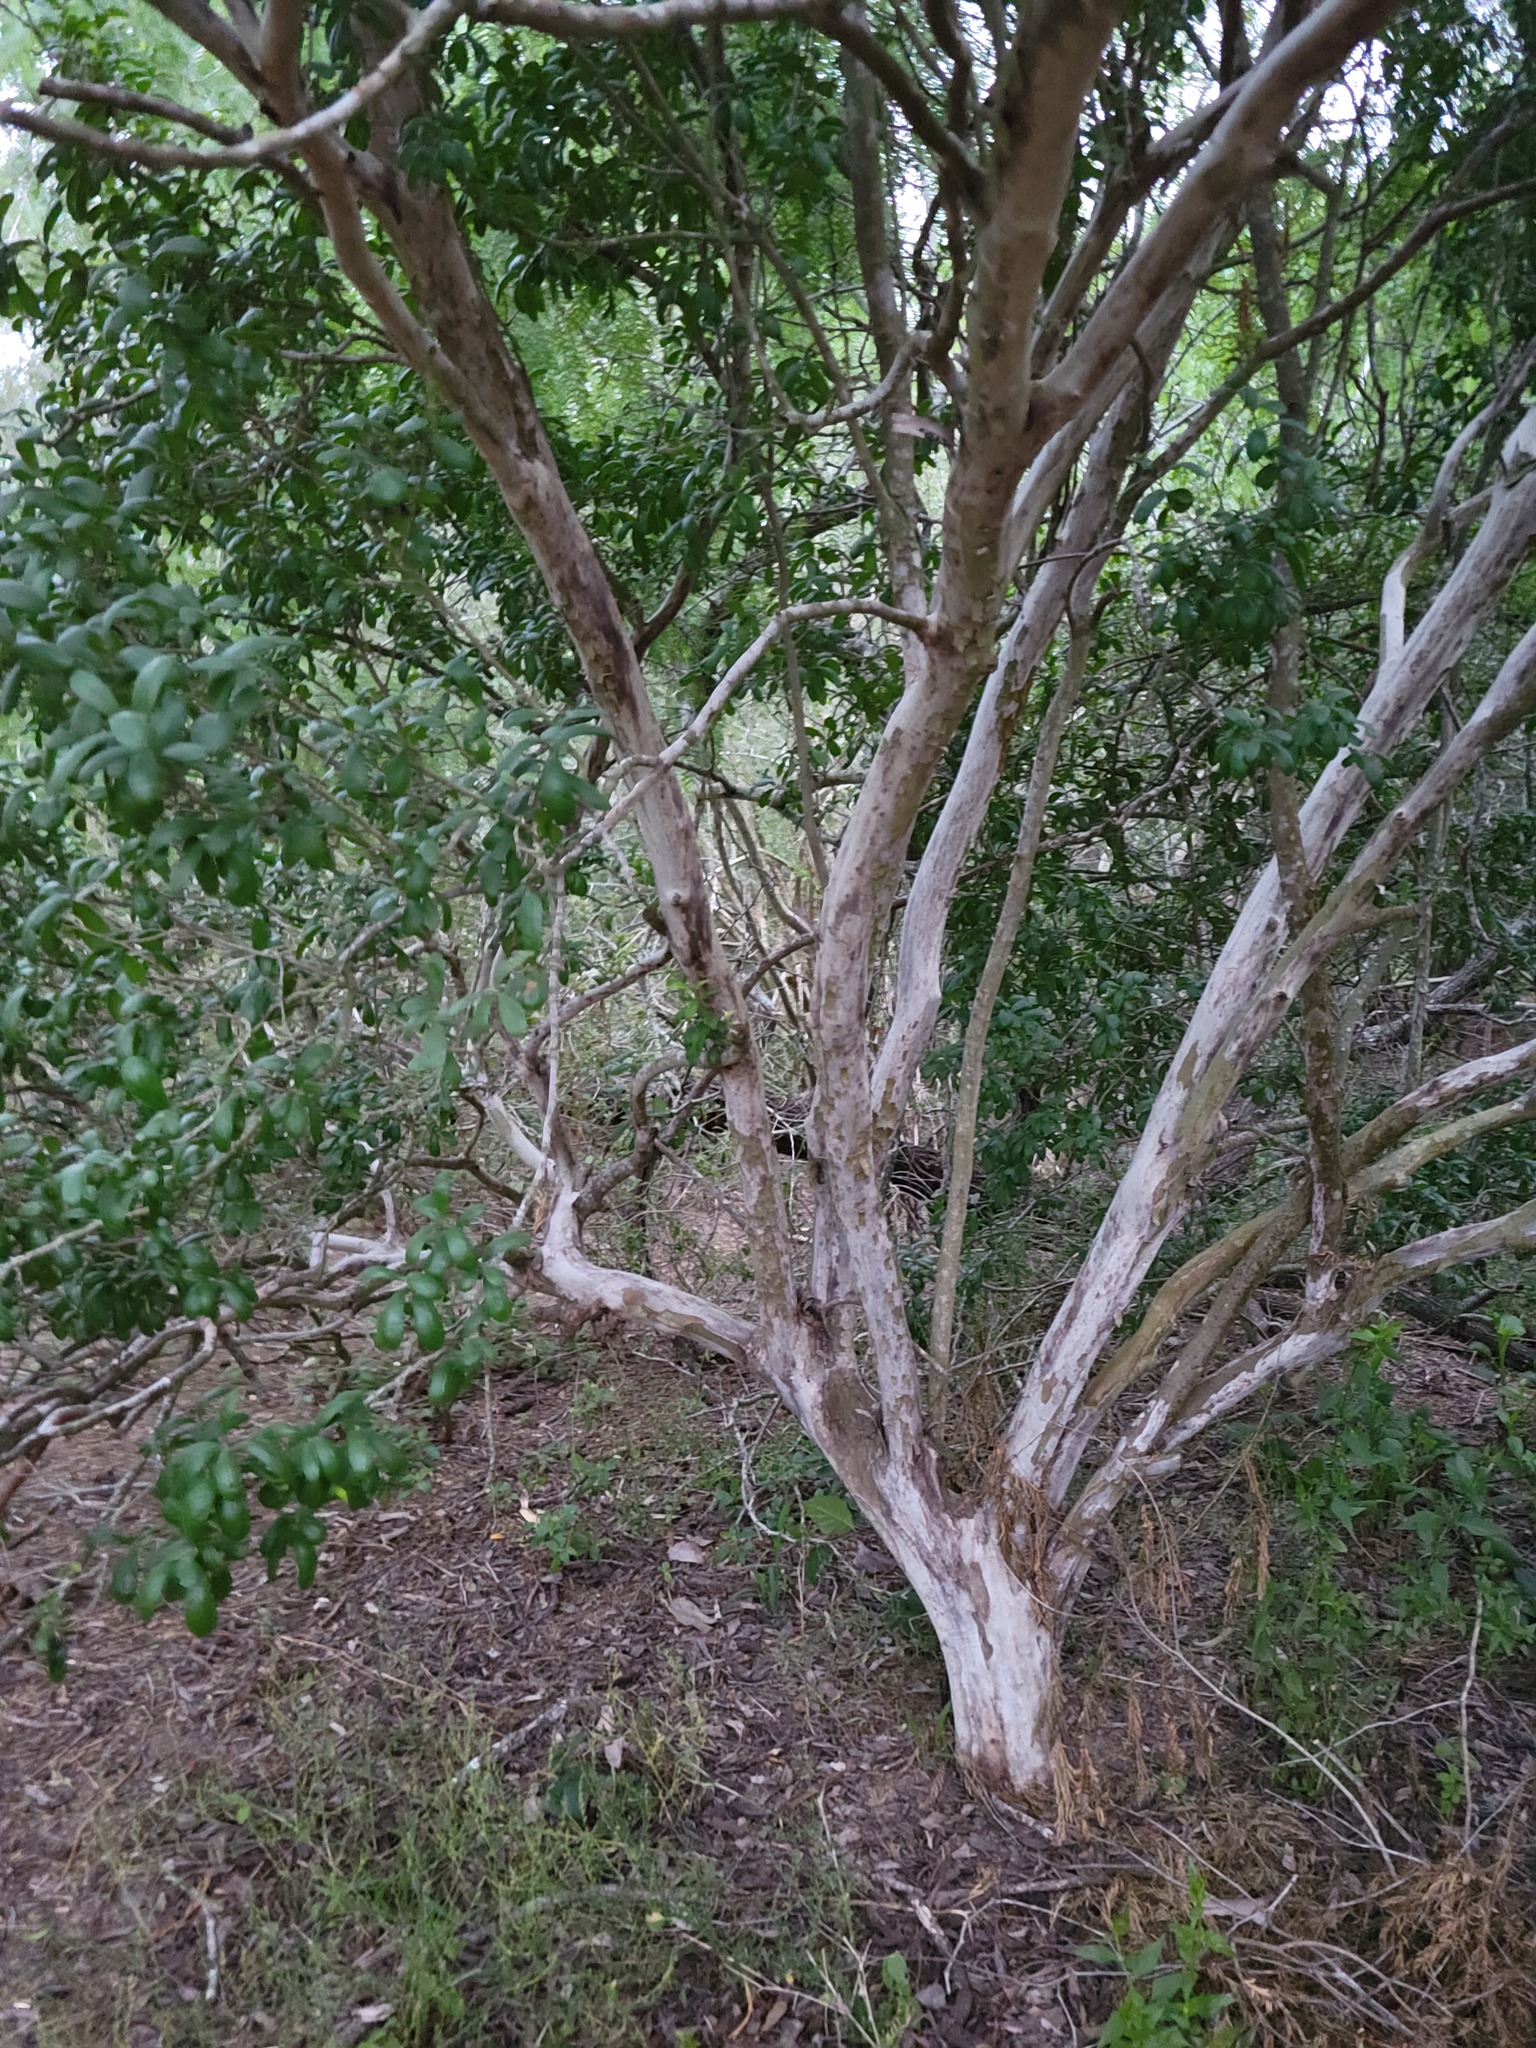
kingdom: Plantae
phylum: Tracheophyta
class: Magnoliopsida
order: Ericales
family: Ebenaceae
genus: Diospyros
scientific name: Diospyros texana
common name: Texas persimmon
